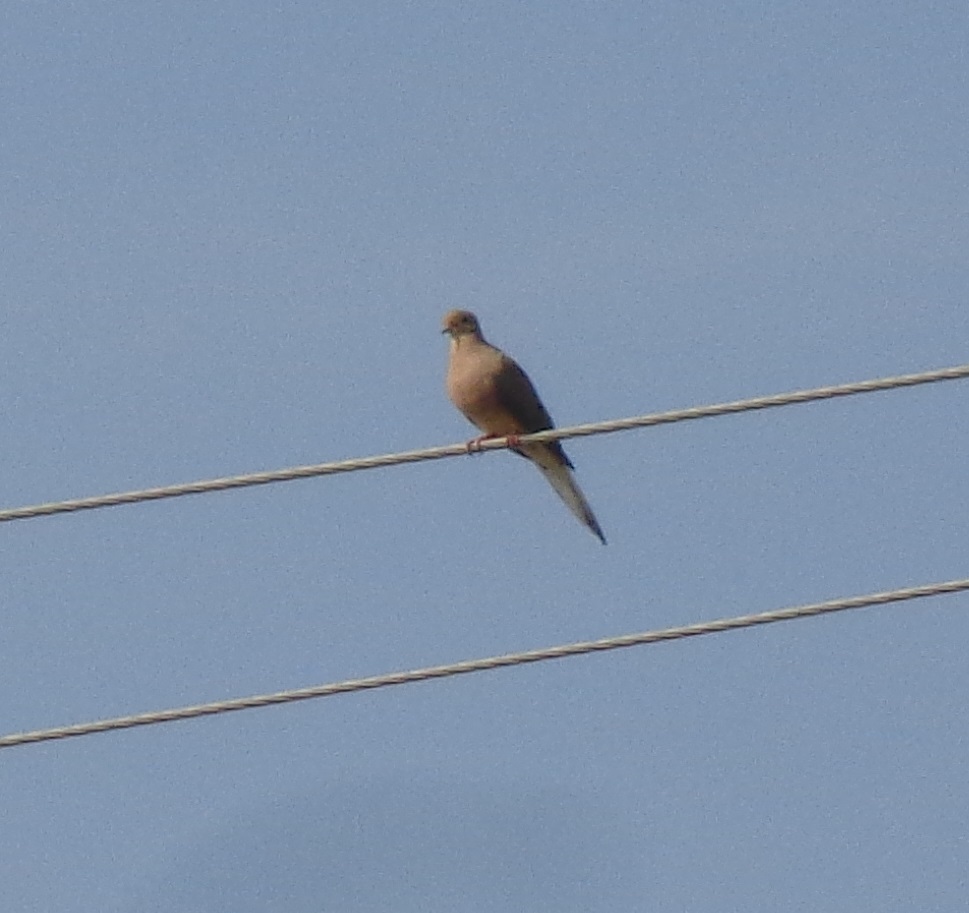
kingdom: Animalia
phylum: Chordata
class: Aves
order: Columbiformes
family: Columbidae
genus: Zenaida
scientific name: Zenaida macroura
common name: Mourning dove
